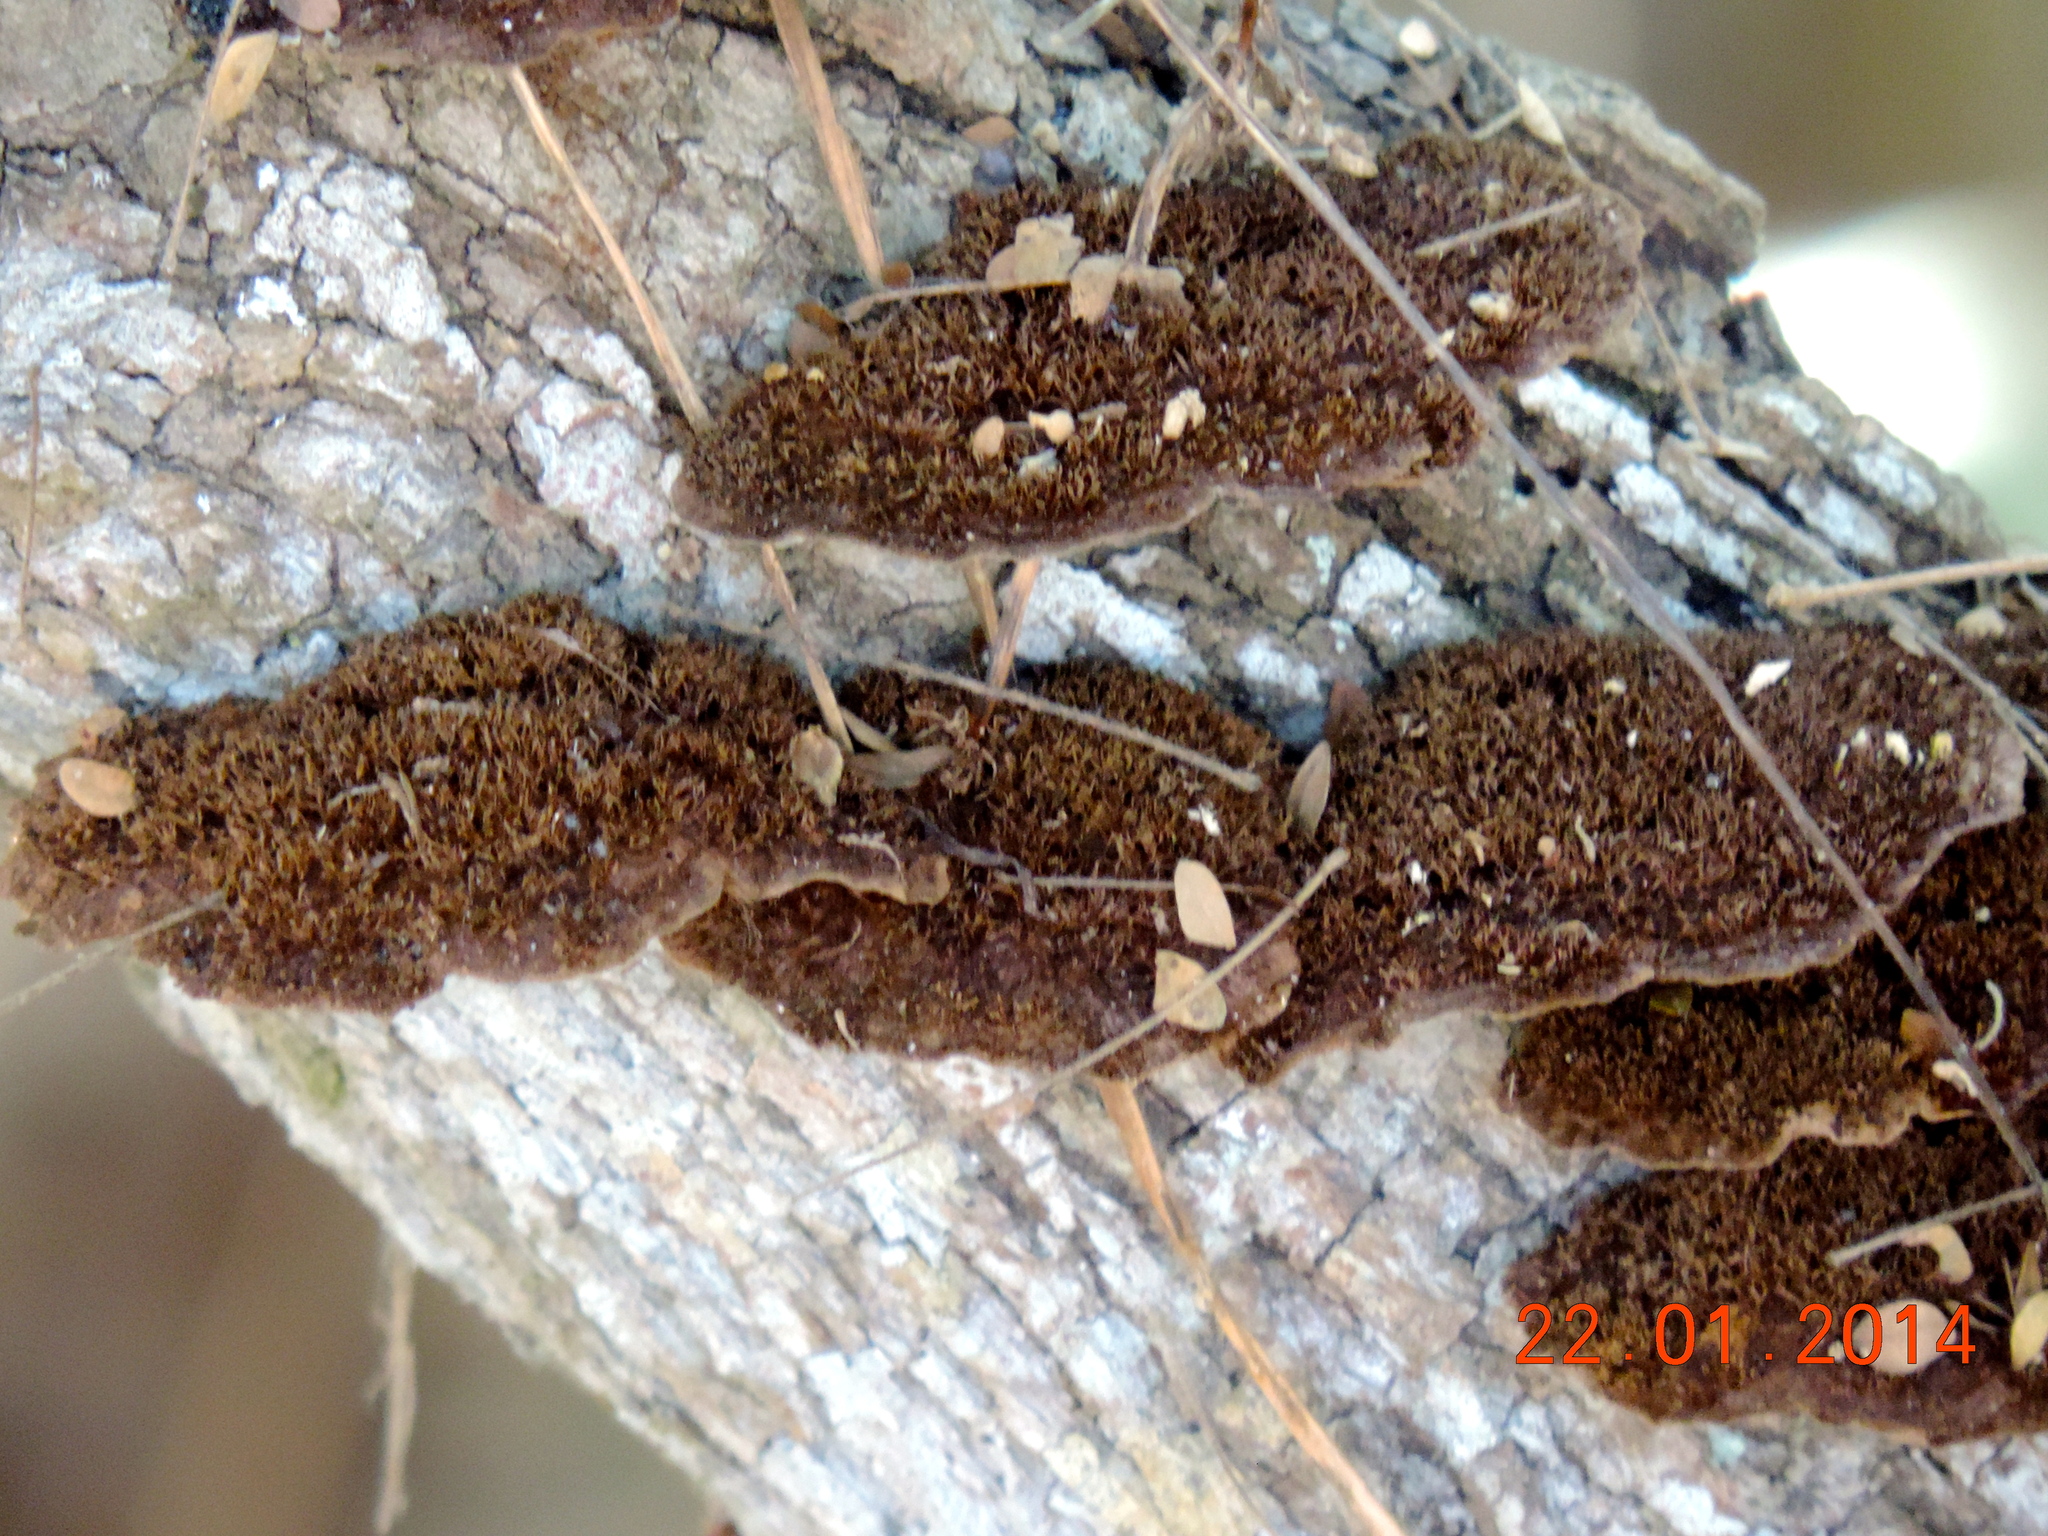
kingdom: Fungi
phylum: Basidiomycota
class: Agaricomycetes
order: Polyporales
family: Cerrenaceae
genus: Cerrena
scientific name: Cerrena hydnoides
